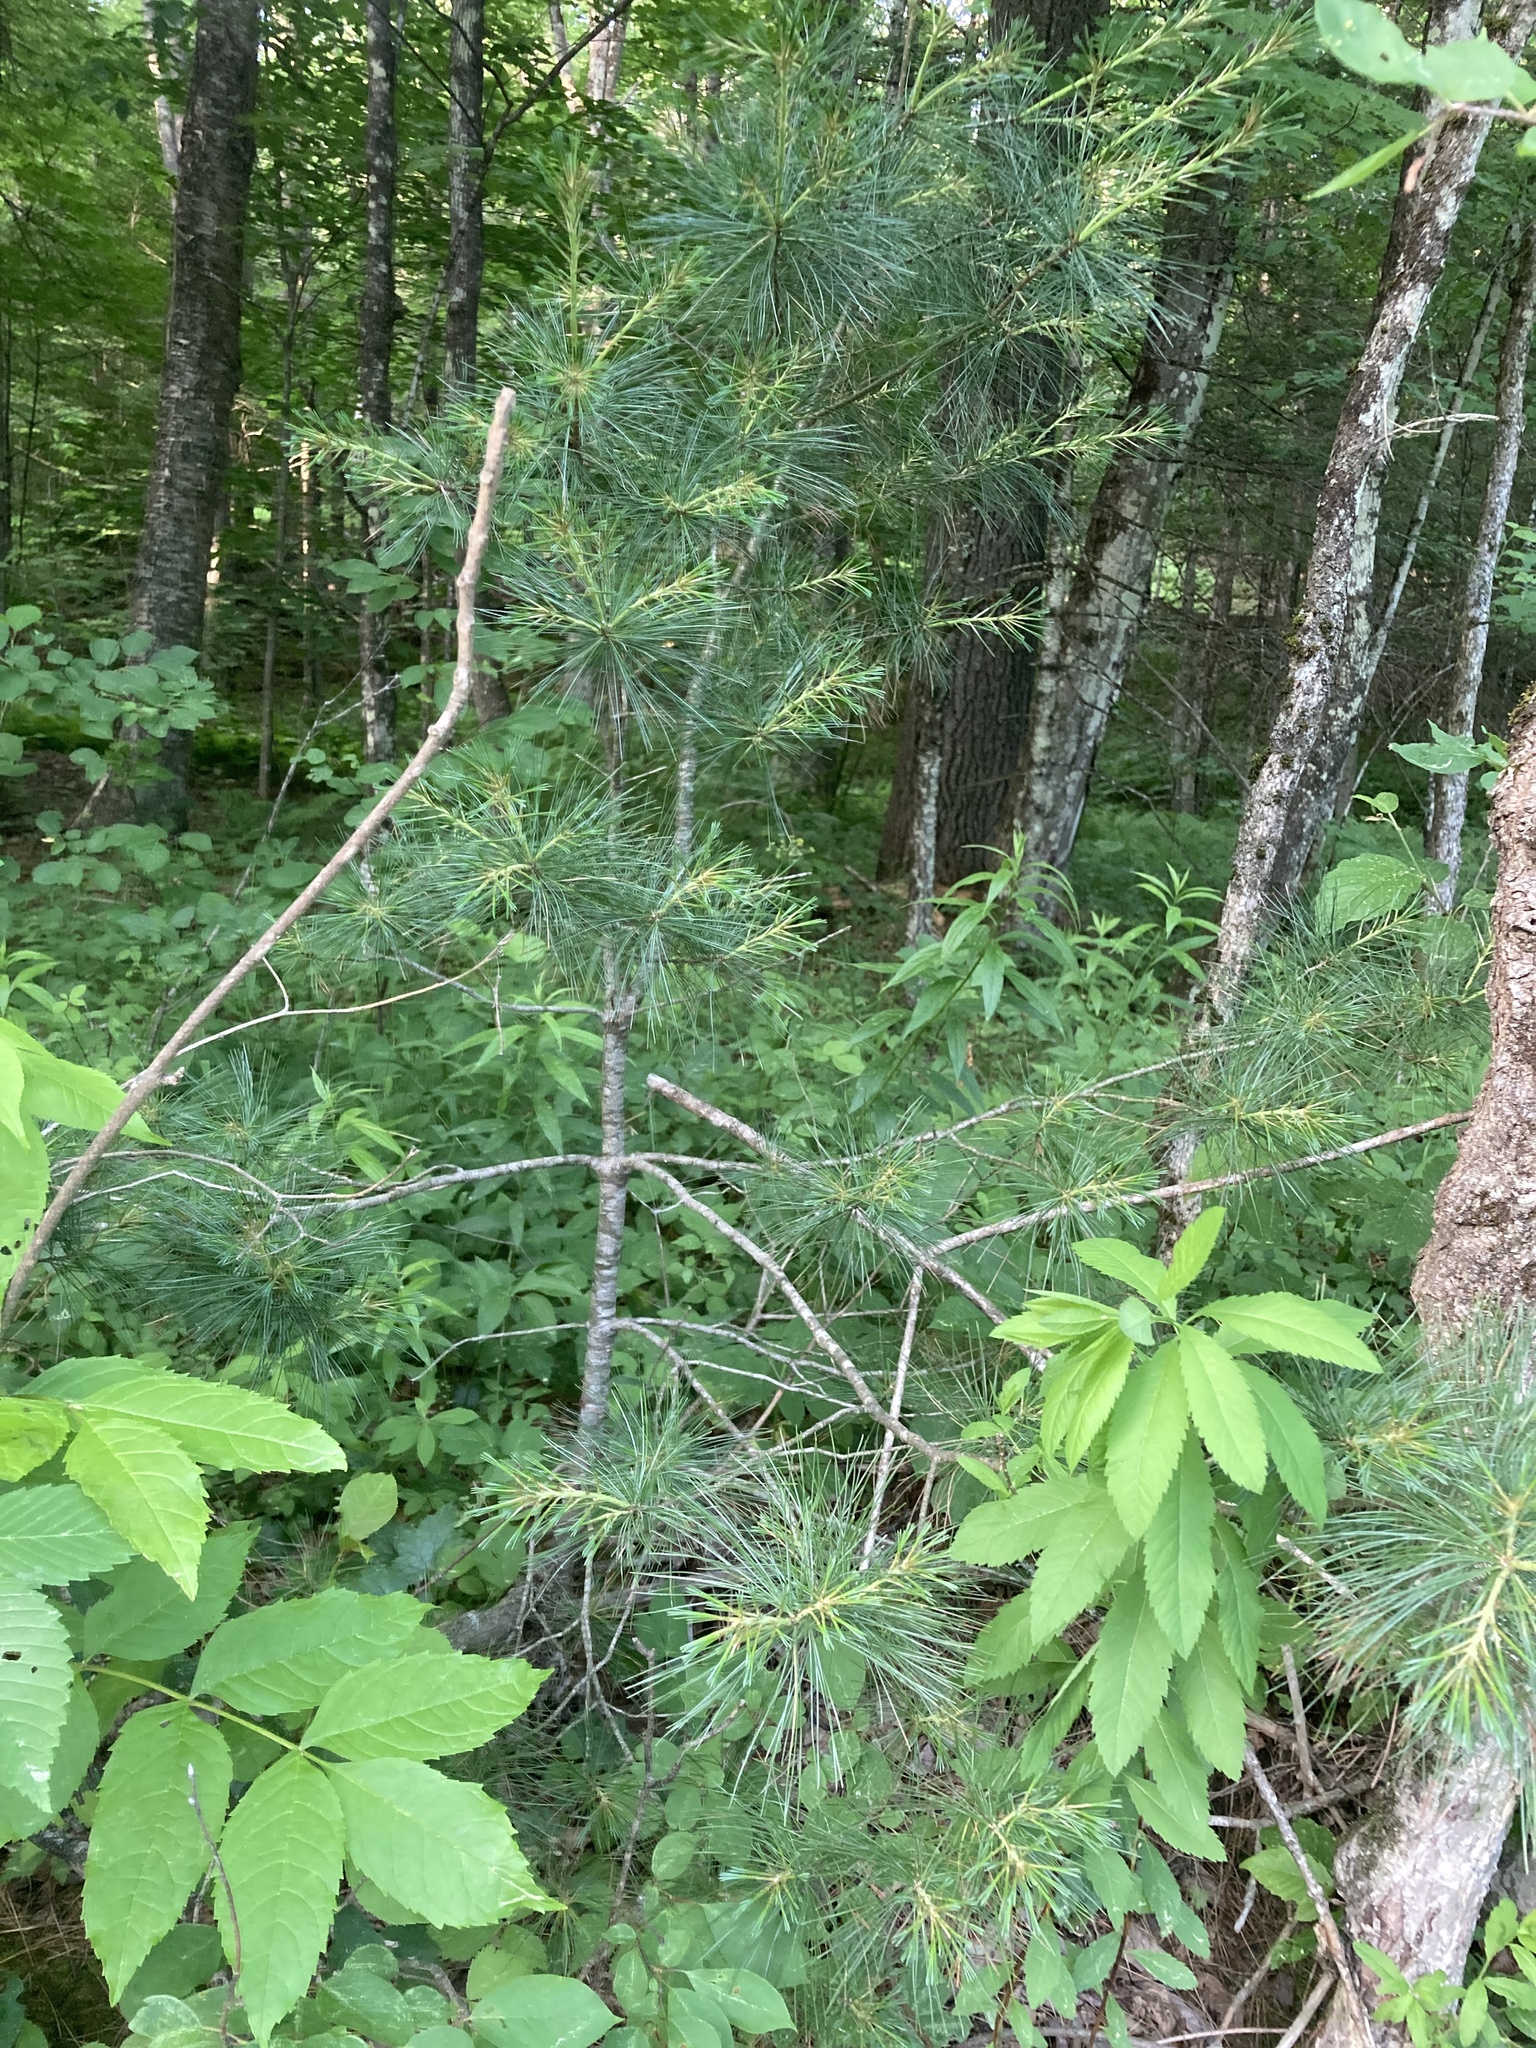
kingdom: Plantae
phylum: Tracheophyta
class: Pinopsida
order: Pinales
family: Pinaceae
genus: Pinus
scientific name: Pinus strobus
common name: Weymouth pine
